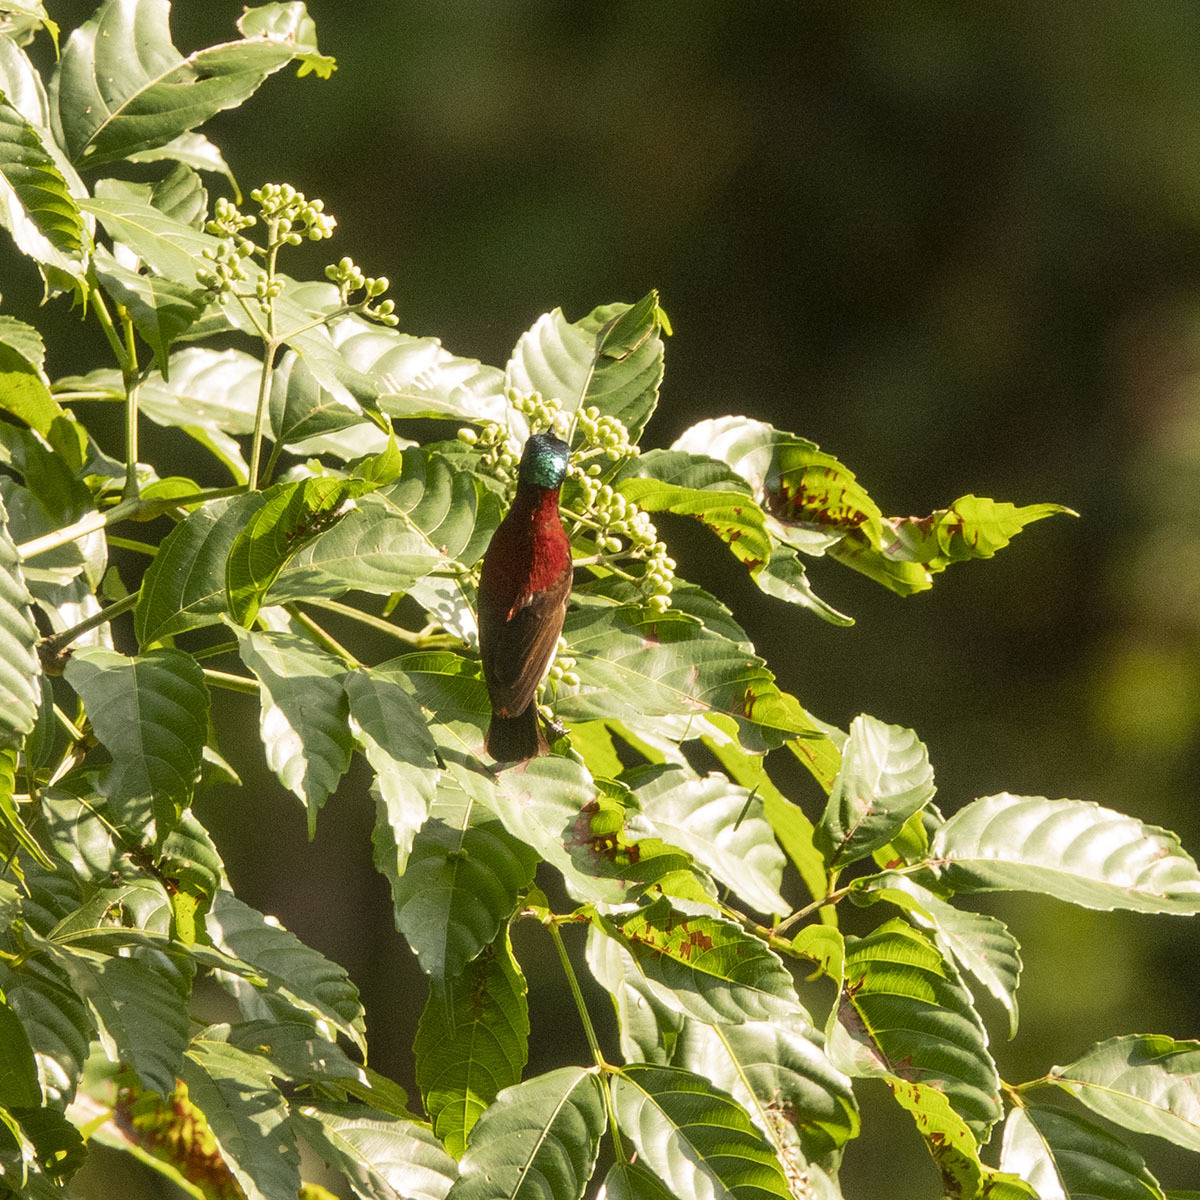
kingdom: Animalia
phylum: Chordata
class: Aves
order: Passeriformes
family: Nectariniidae
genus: Leptocoma
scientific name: Leptocoma minima
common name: Crimson-backed sunbird
